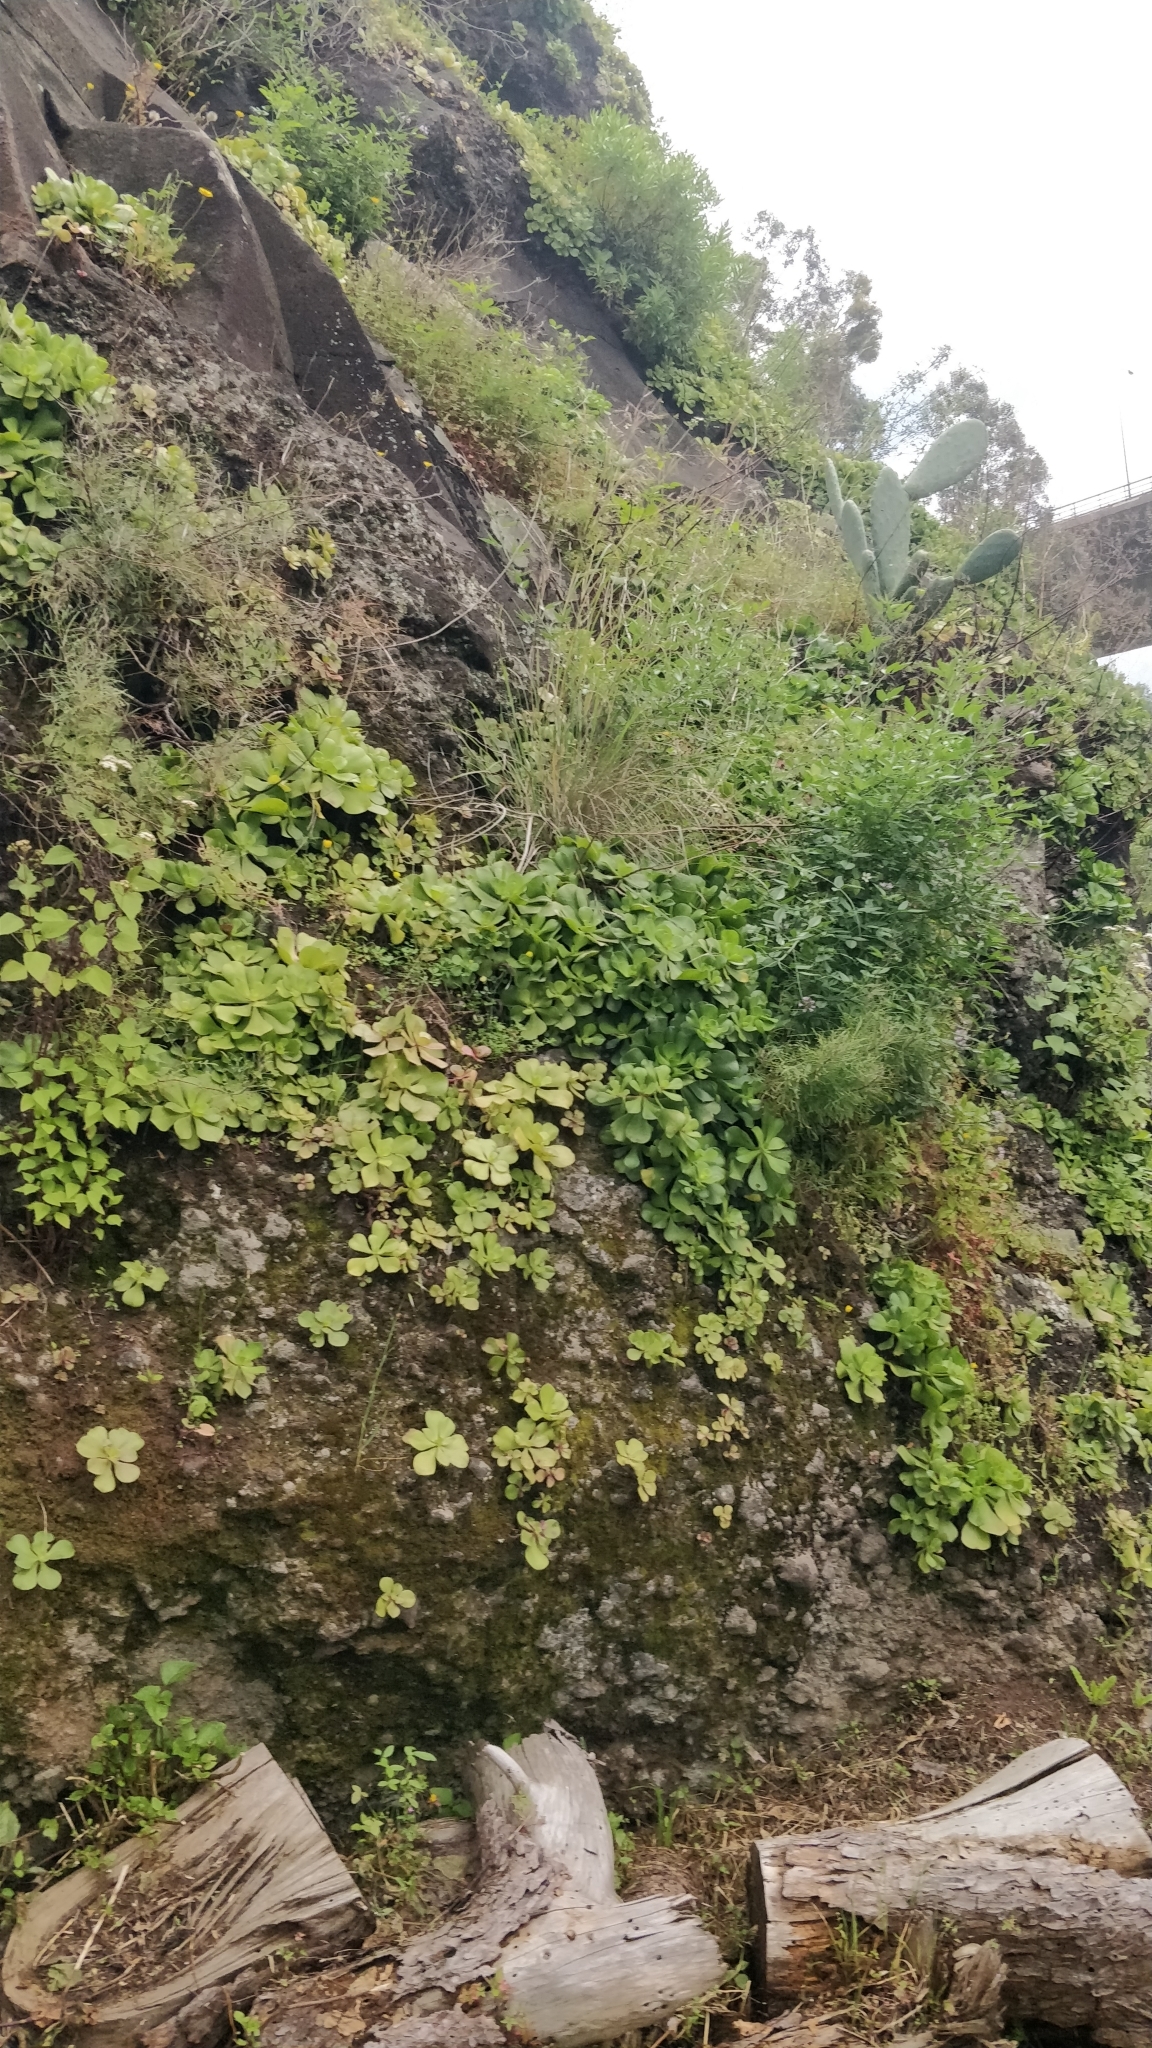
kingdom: Plantae
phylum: Tracheophyta
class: Magnoliopsida
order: Saxifragales
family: Crassulaceae
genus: Aeonium
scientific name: Aeonium glutinosum
